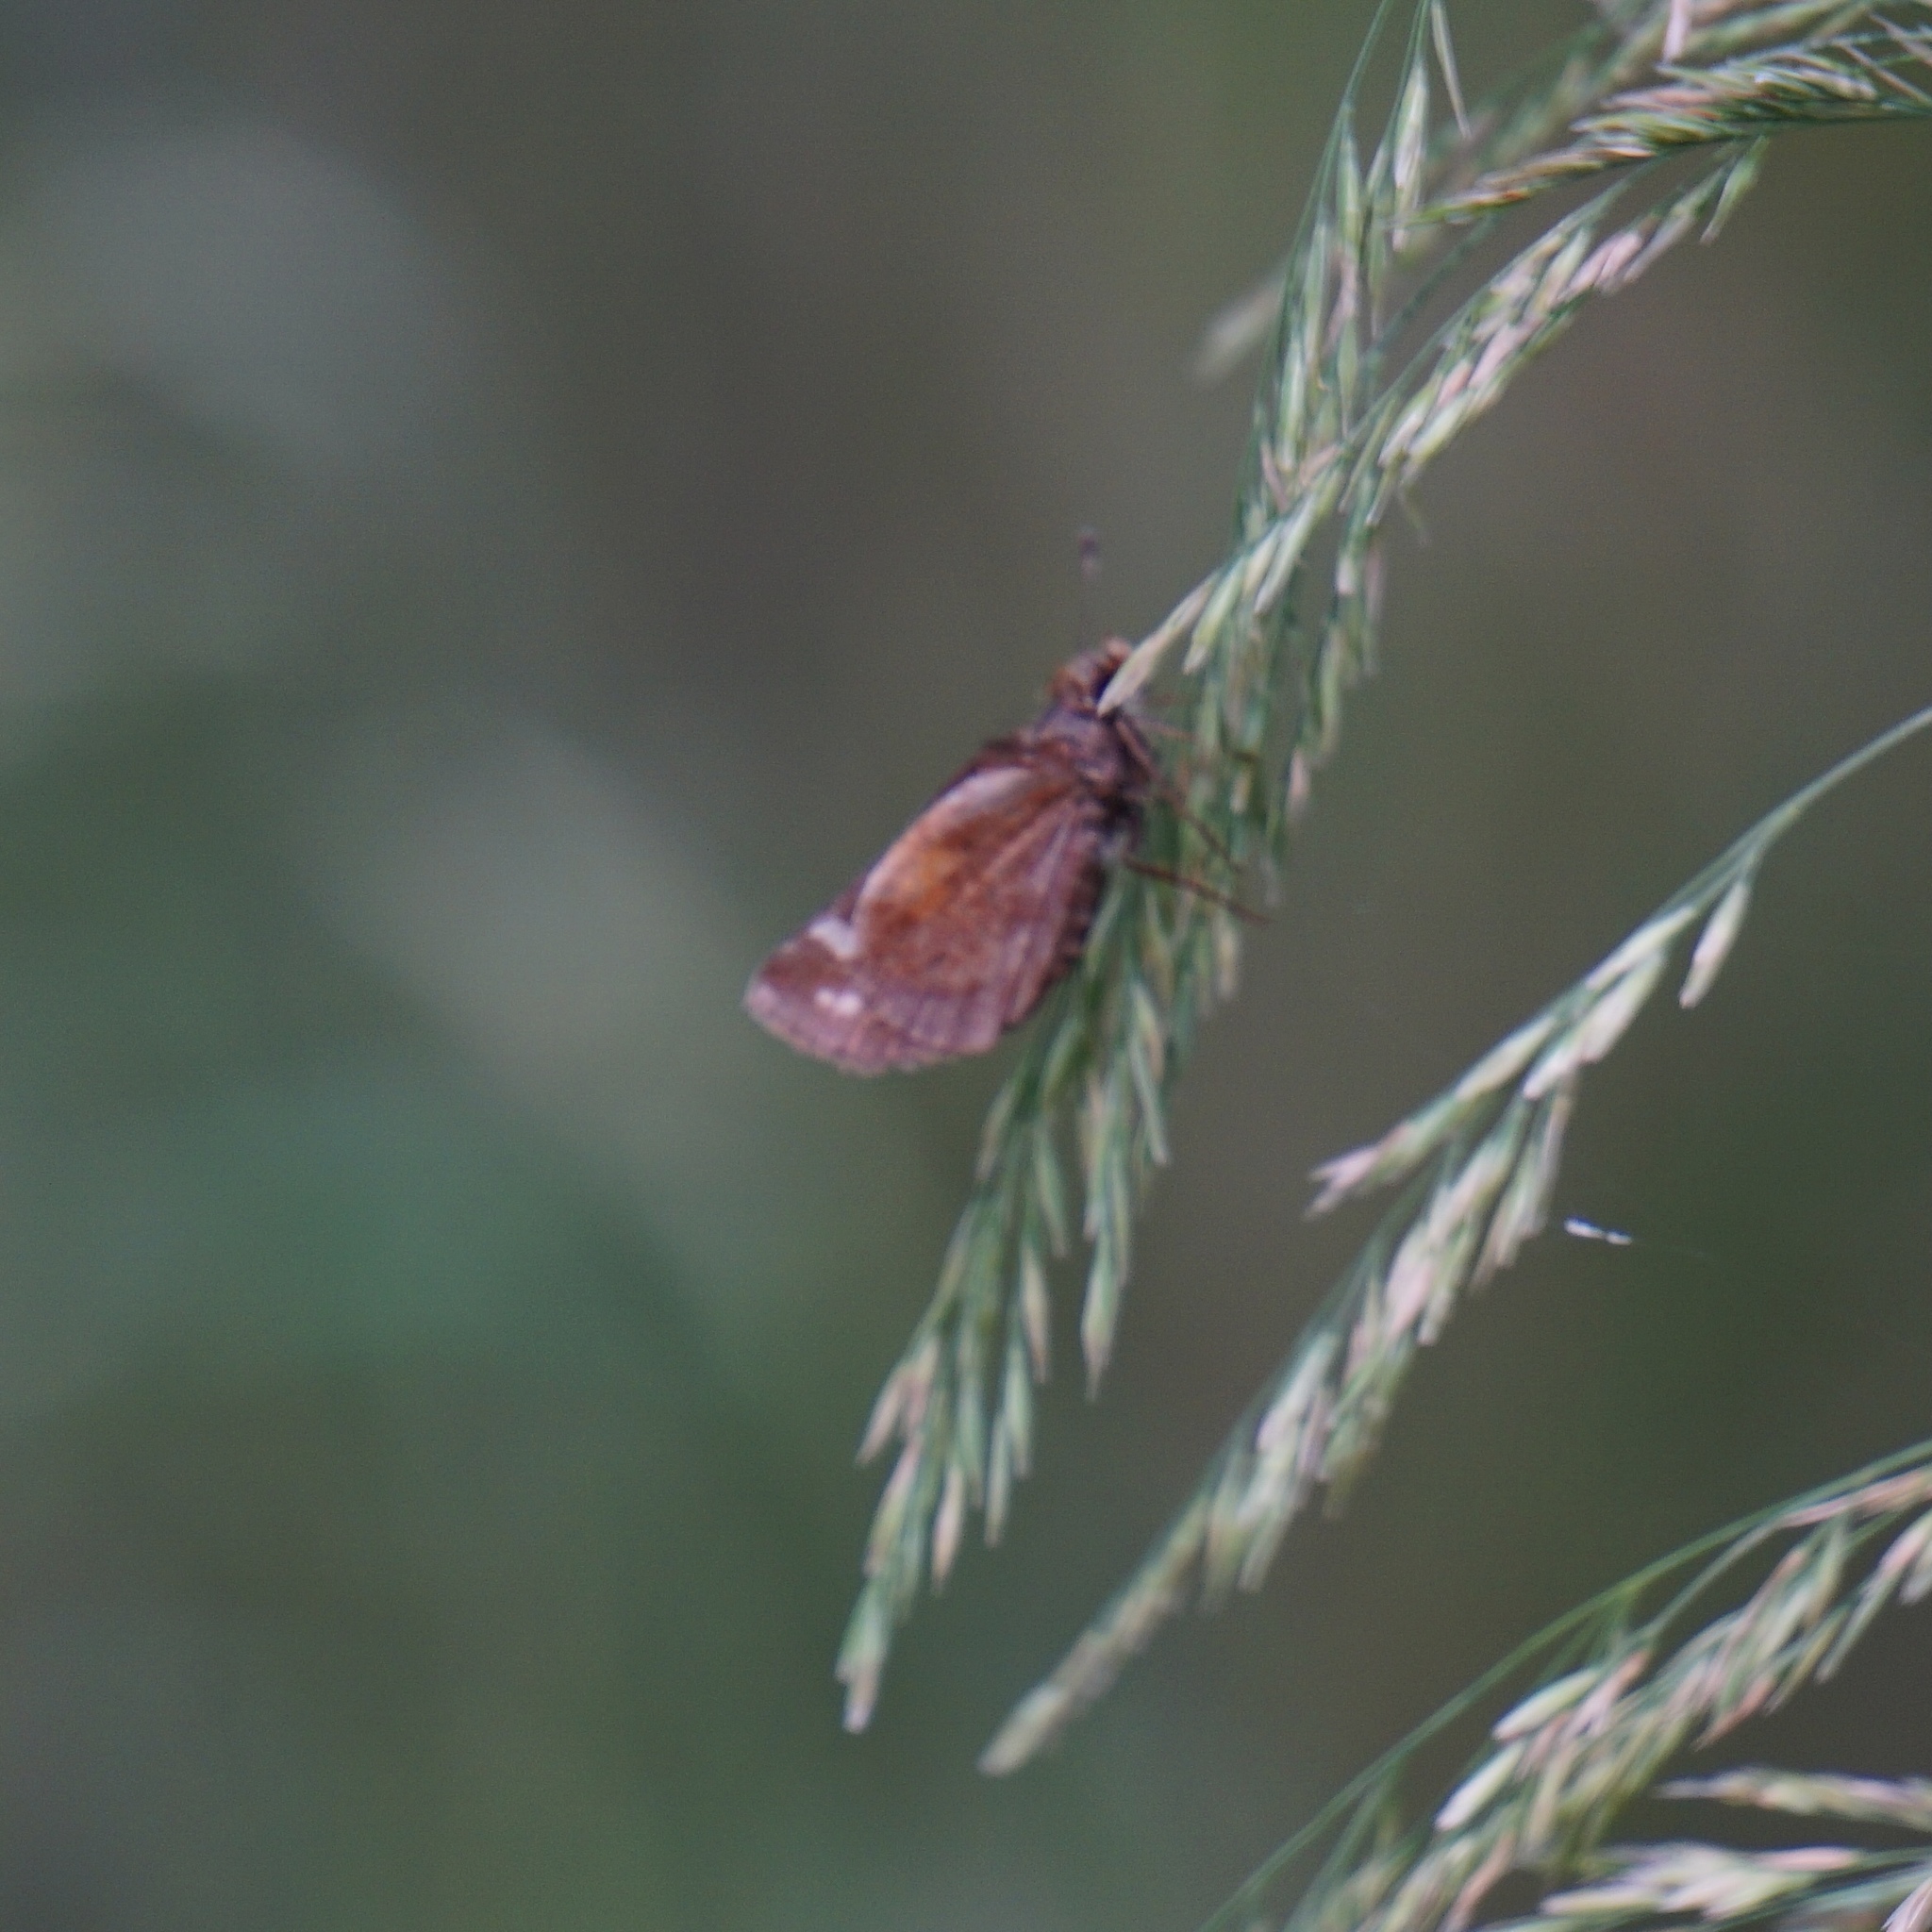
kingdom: Animalia
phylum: Arthropoda
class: Insecta
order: Lepidoptera
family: Hesperiidae
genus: Lon
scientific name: Lon zabulon
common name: Zabulon skipper
